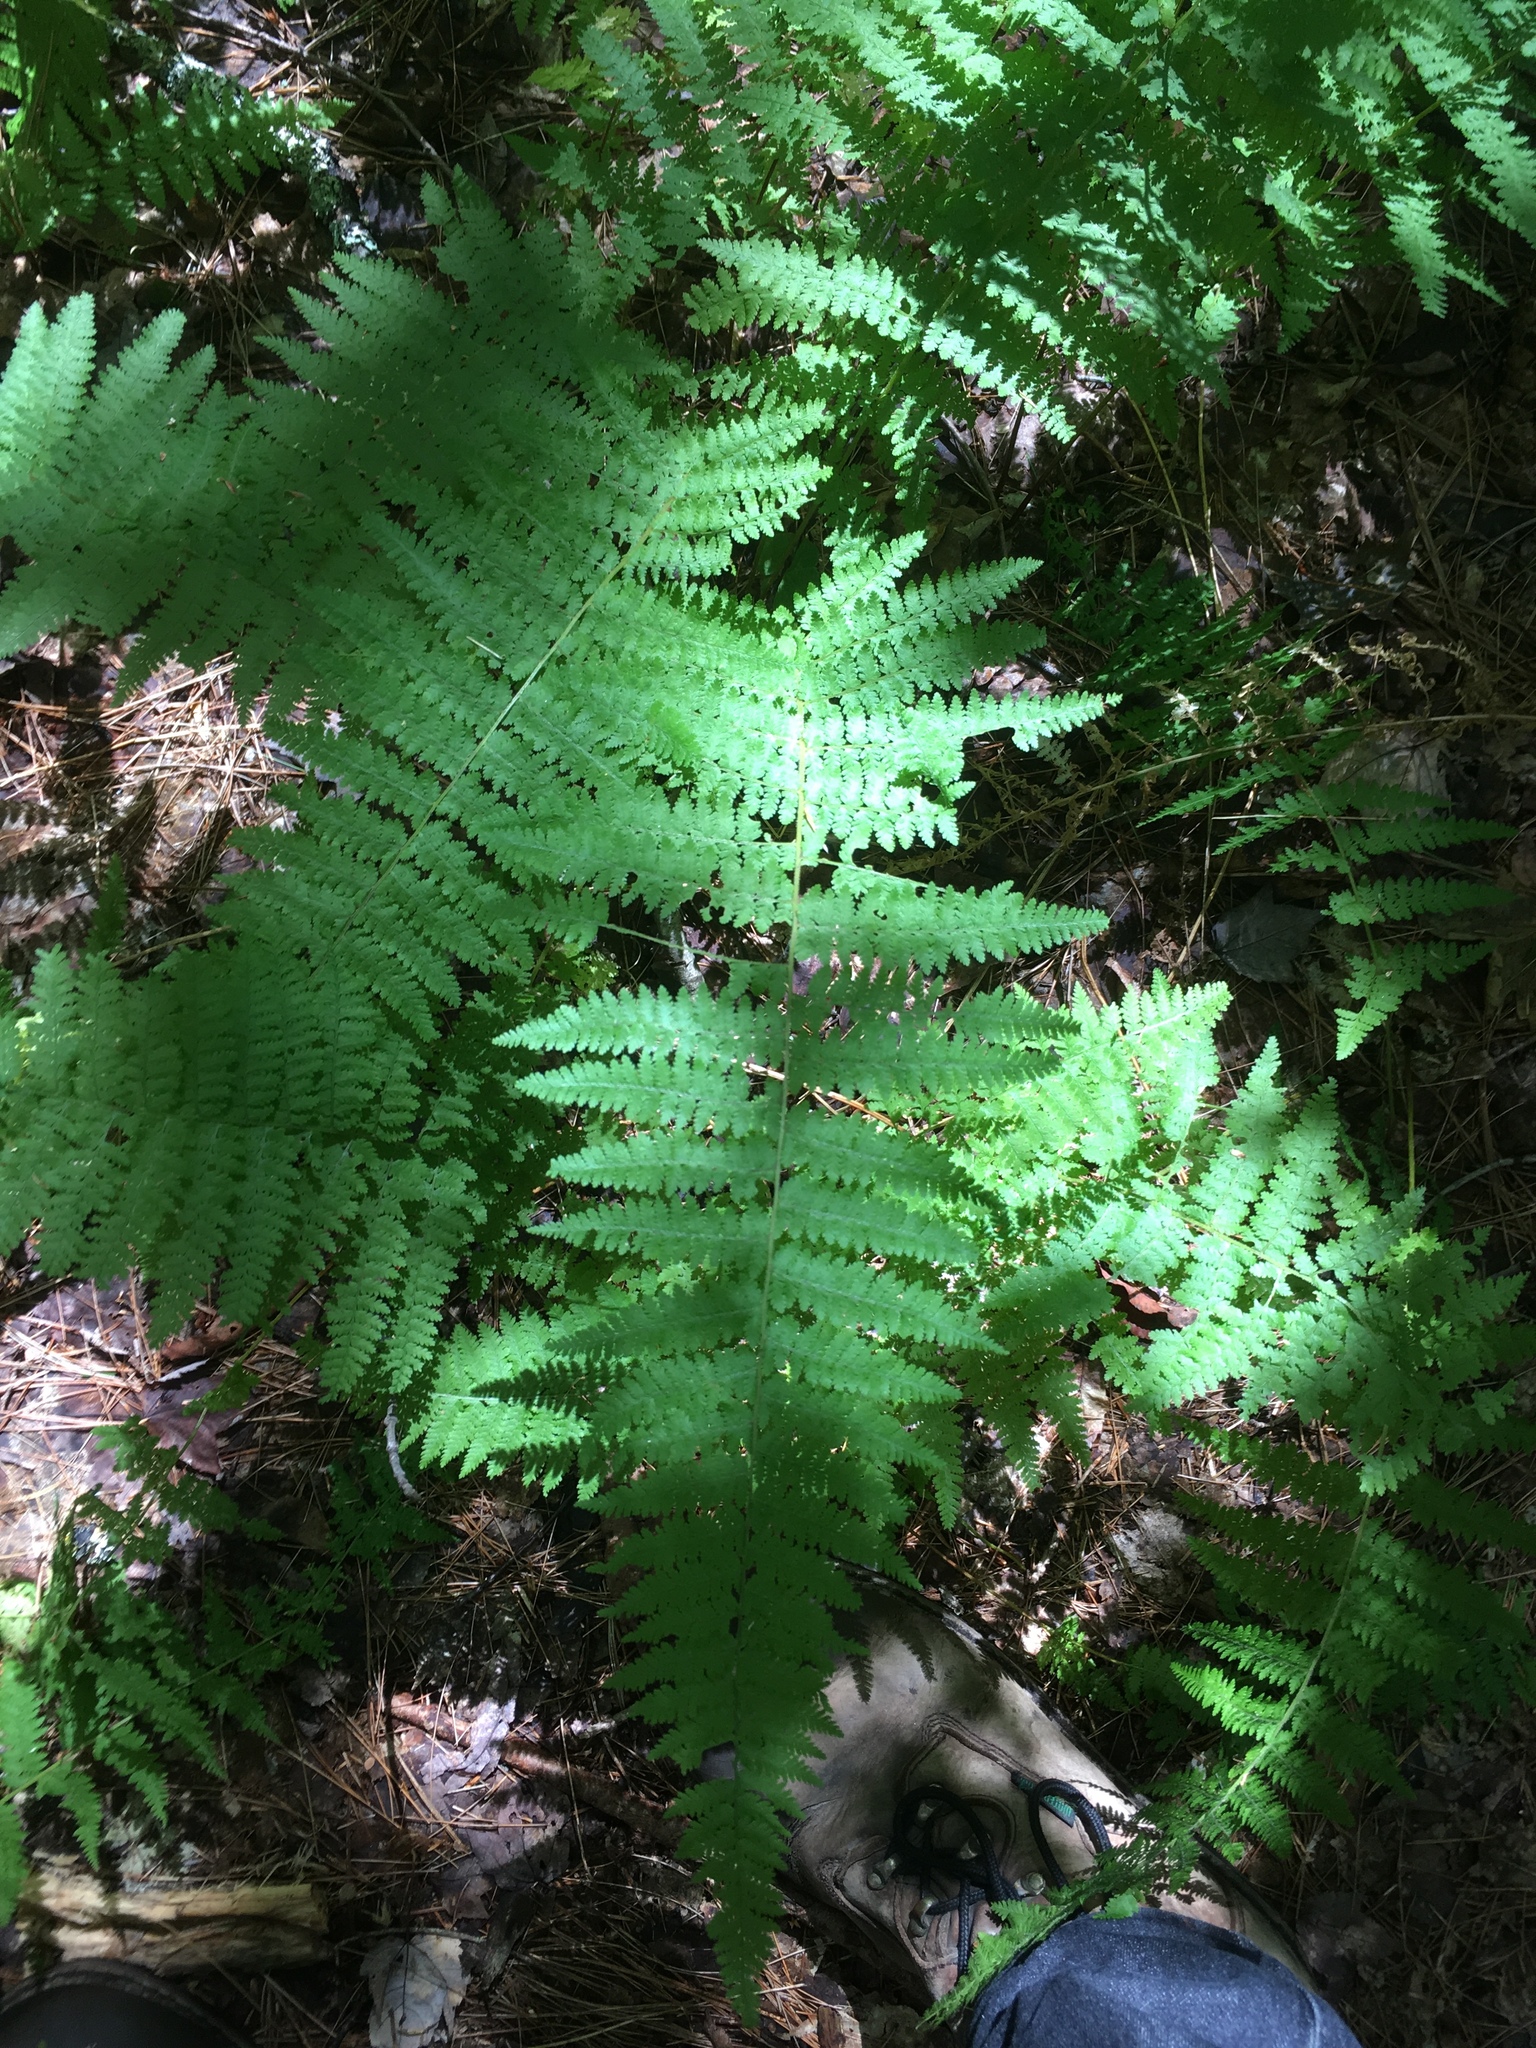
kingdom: Plantae
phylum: Tracheophyta
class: Polypodiopsida
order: Polypodiales
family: Dennstaedtiaceae
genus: Sitobolium
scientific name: Sitobolium punctilobum
